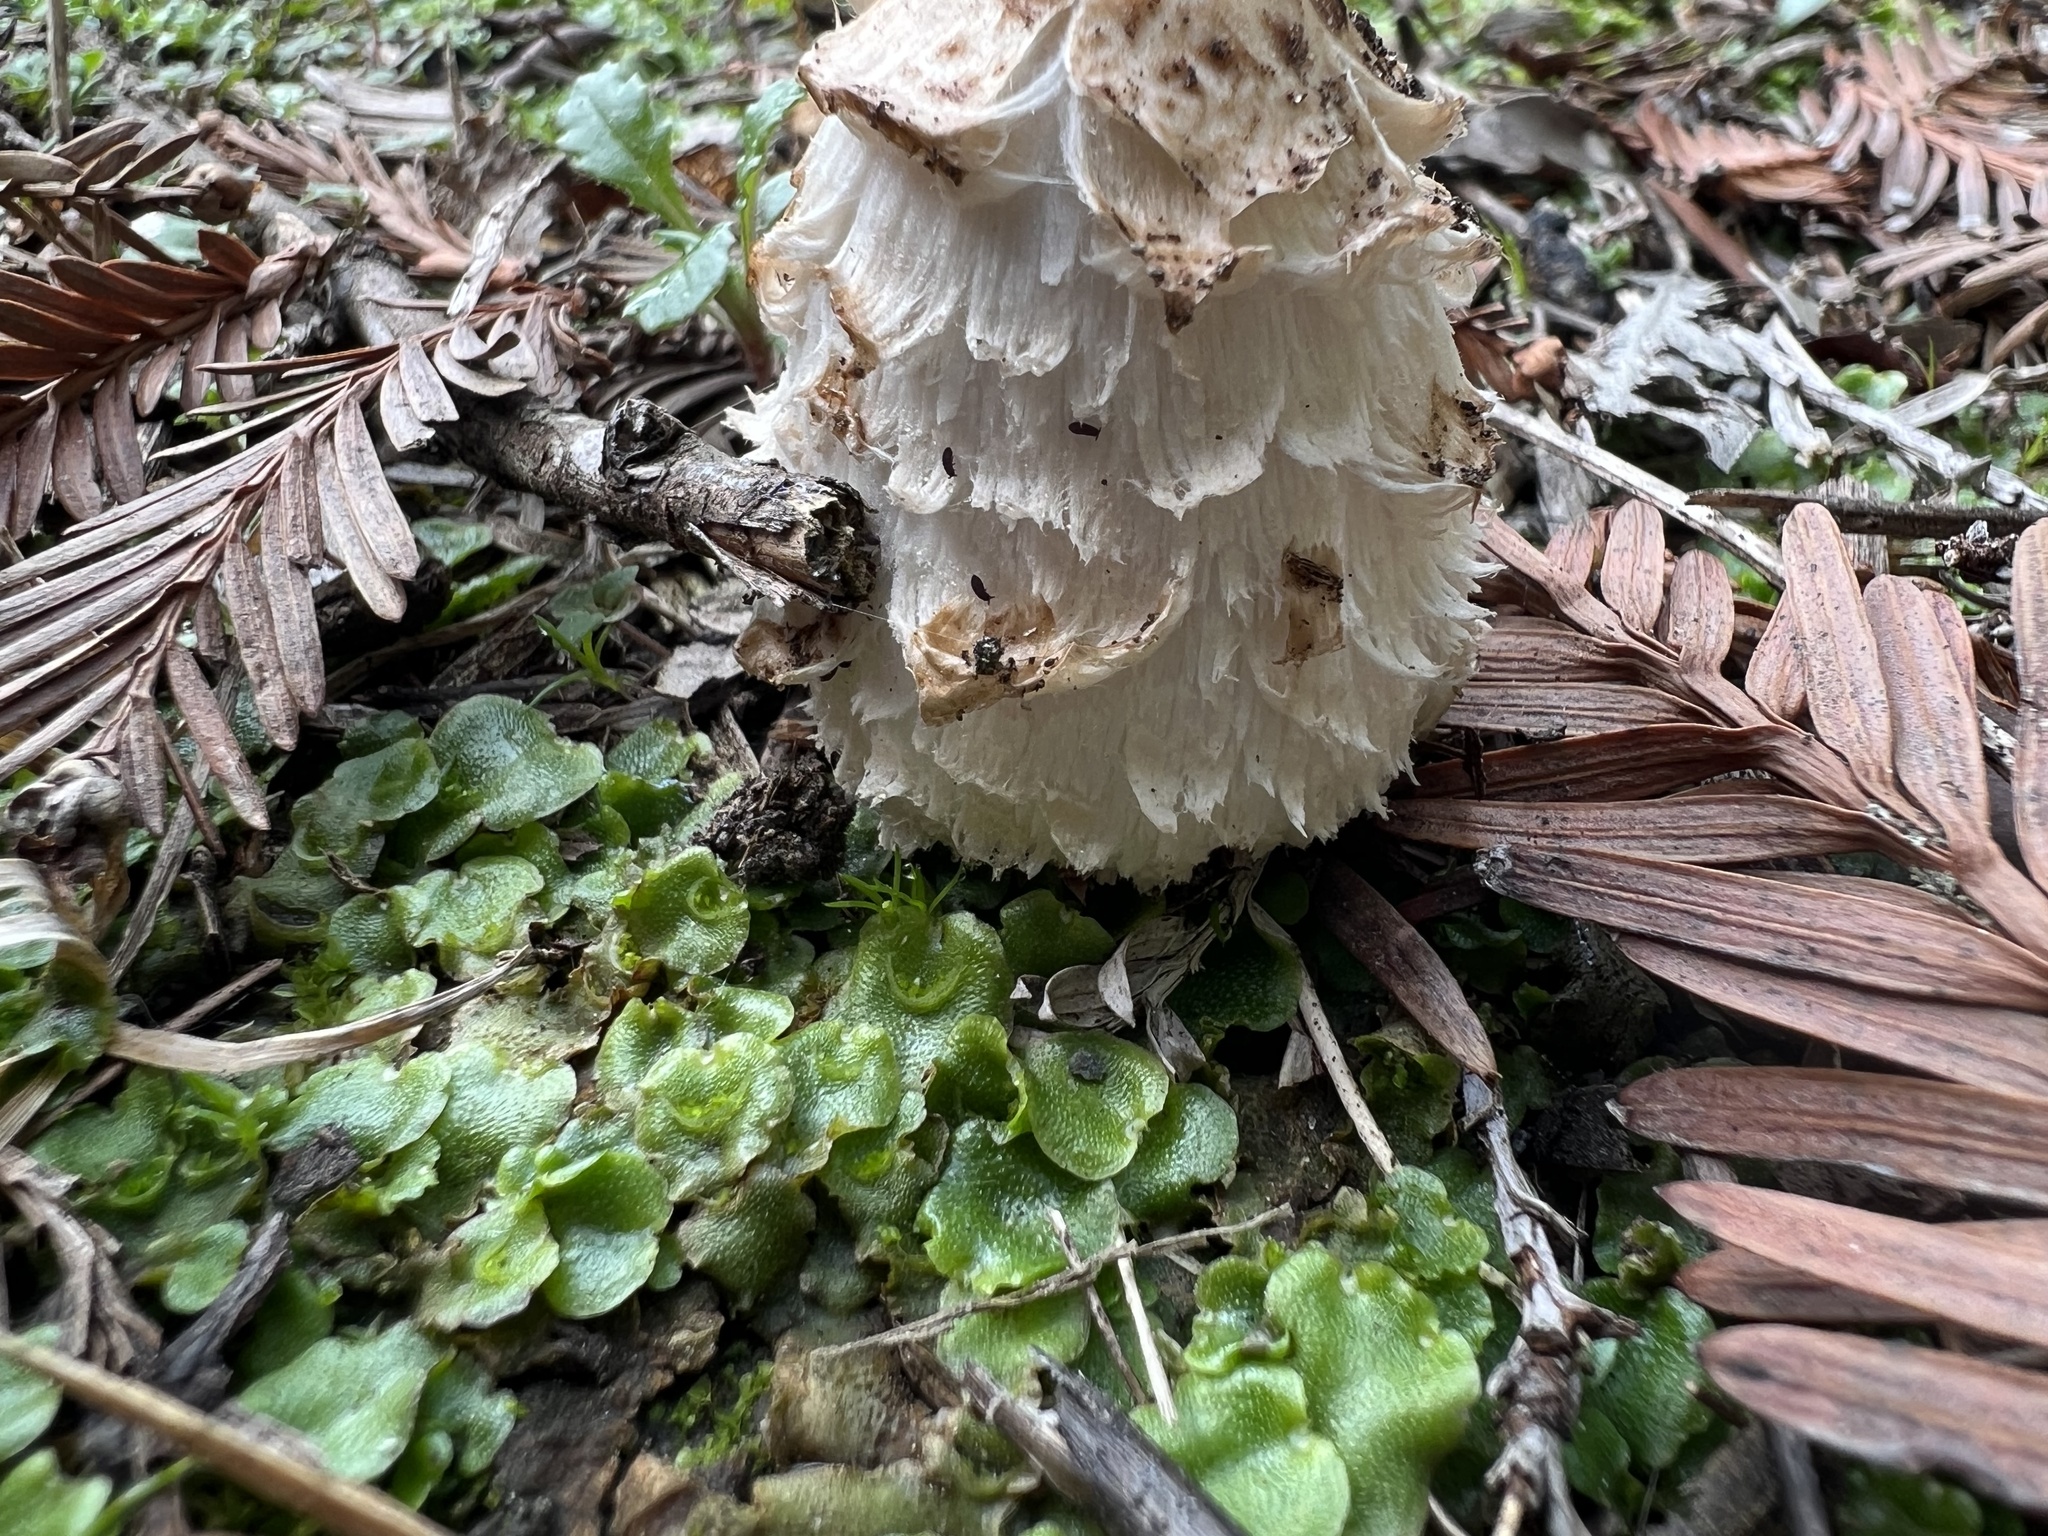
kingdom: Fungi
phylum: Basidiomycota
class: Agaricomycetes
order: Agaricales
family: Agaricaceae
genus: Coprinus
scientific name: Coprinus comatus
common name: Lawyer's wig
